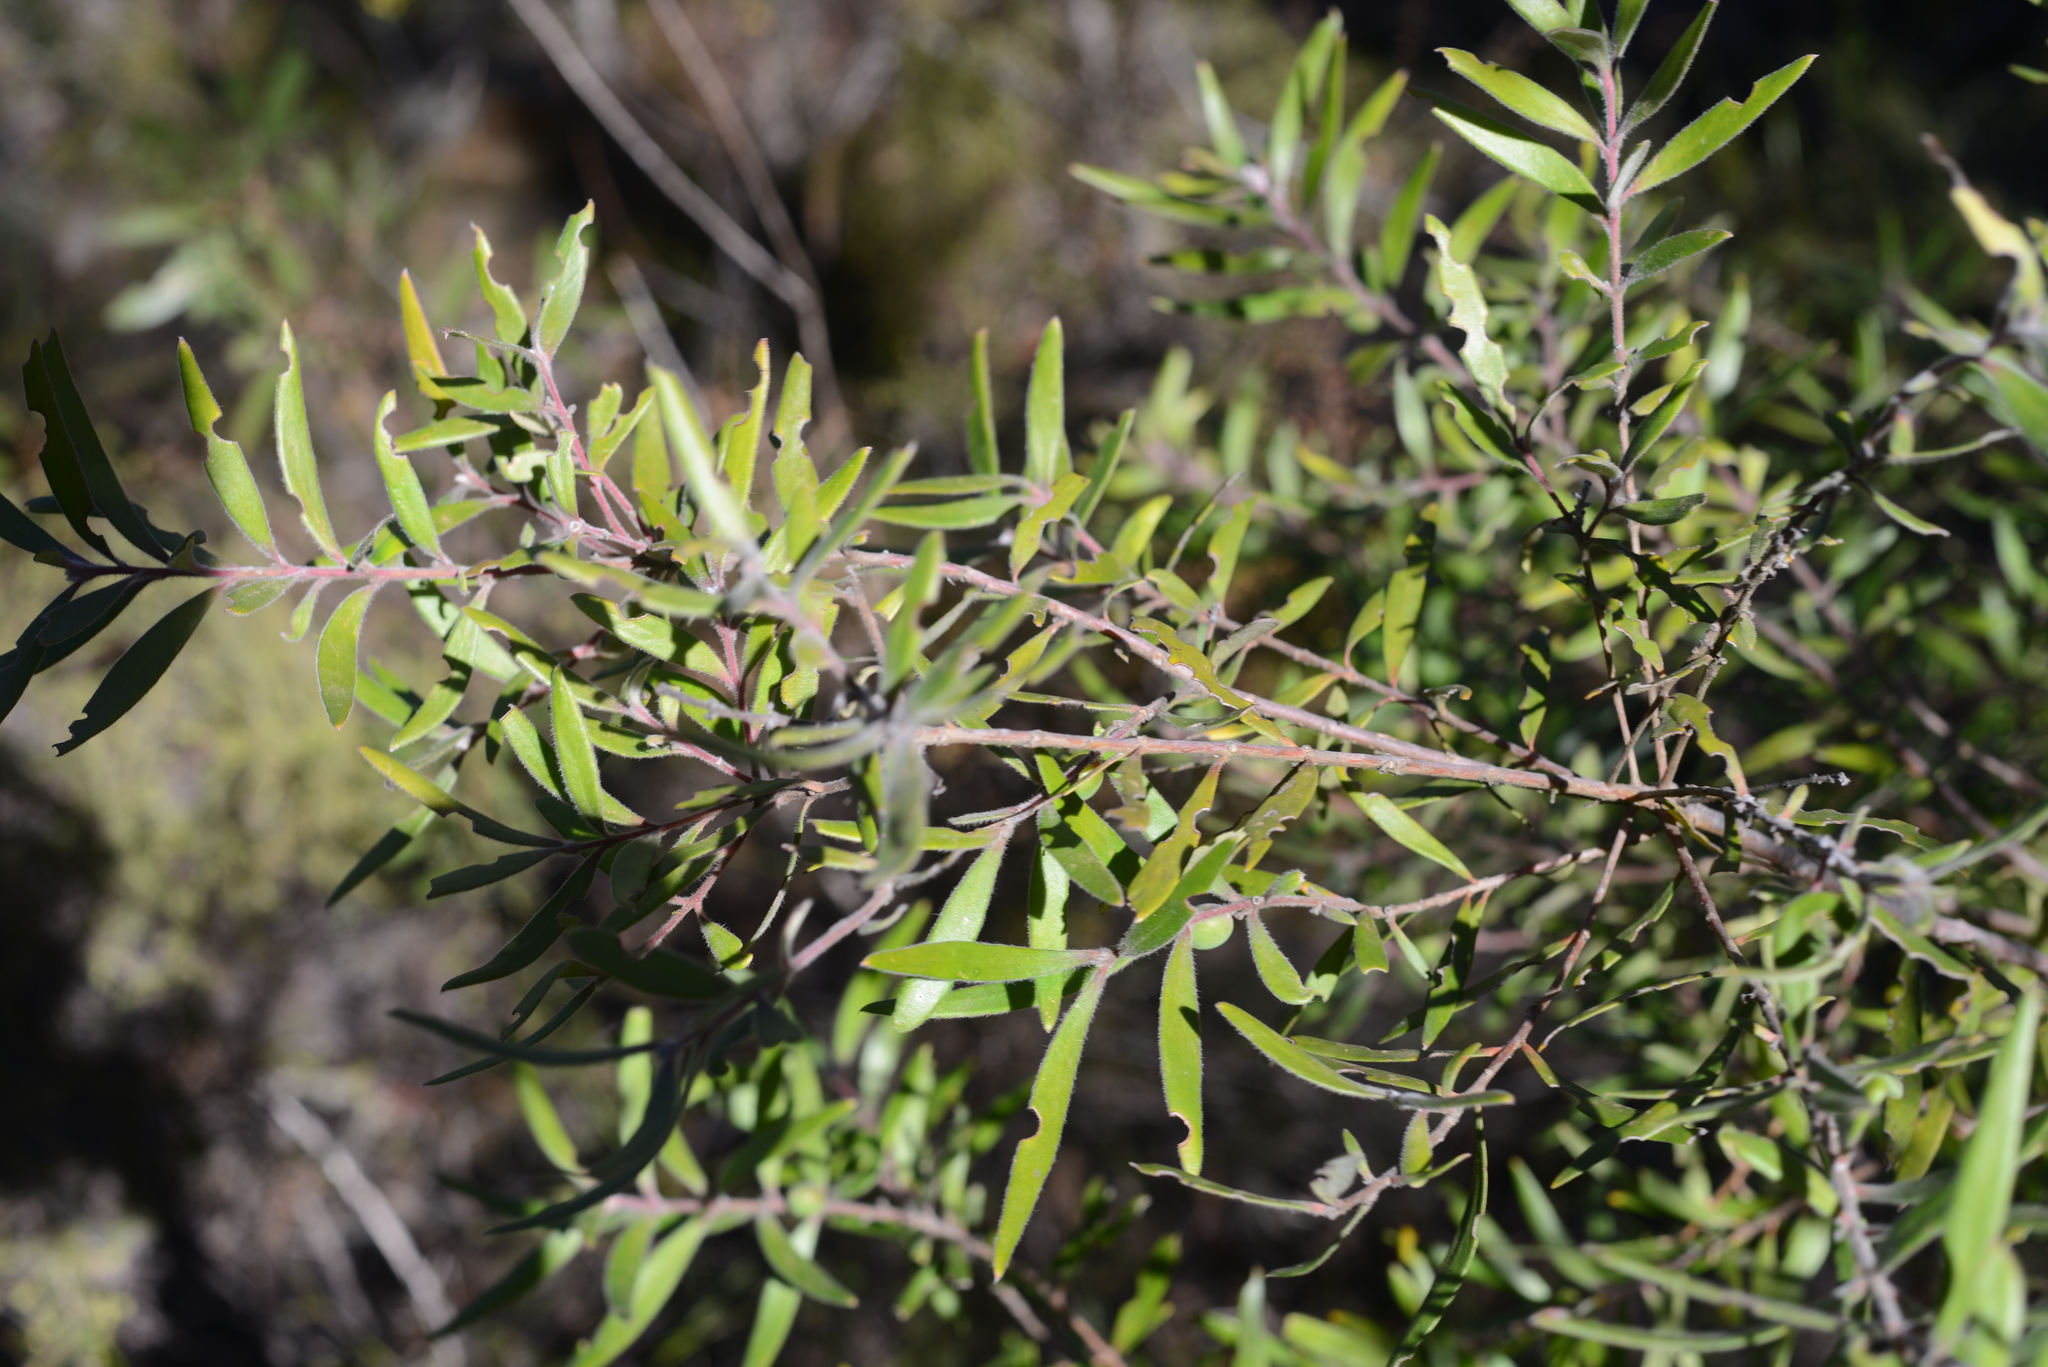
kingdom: Plantae
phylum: Tracheophyta
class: Magnoliopsida
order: Proteales
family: Proteaceae
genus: Persoonia
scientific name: Persoonia mollis
